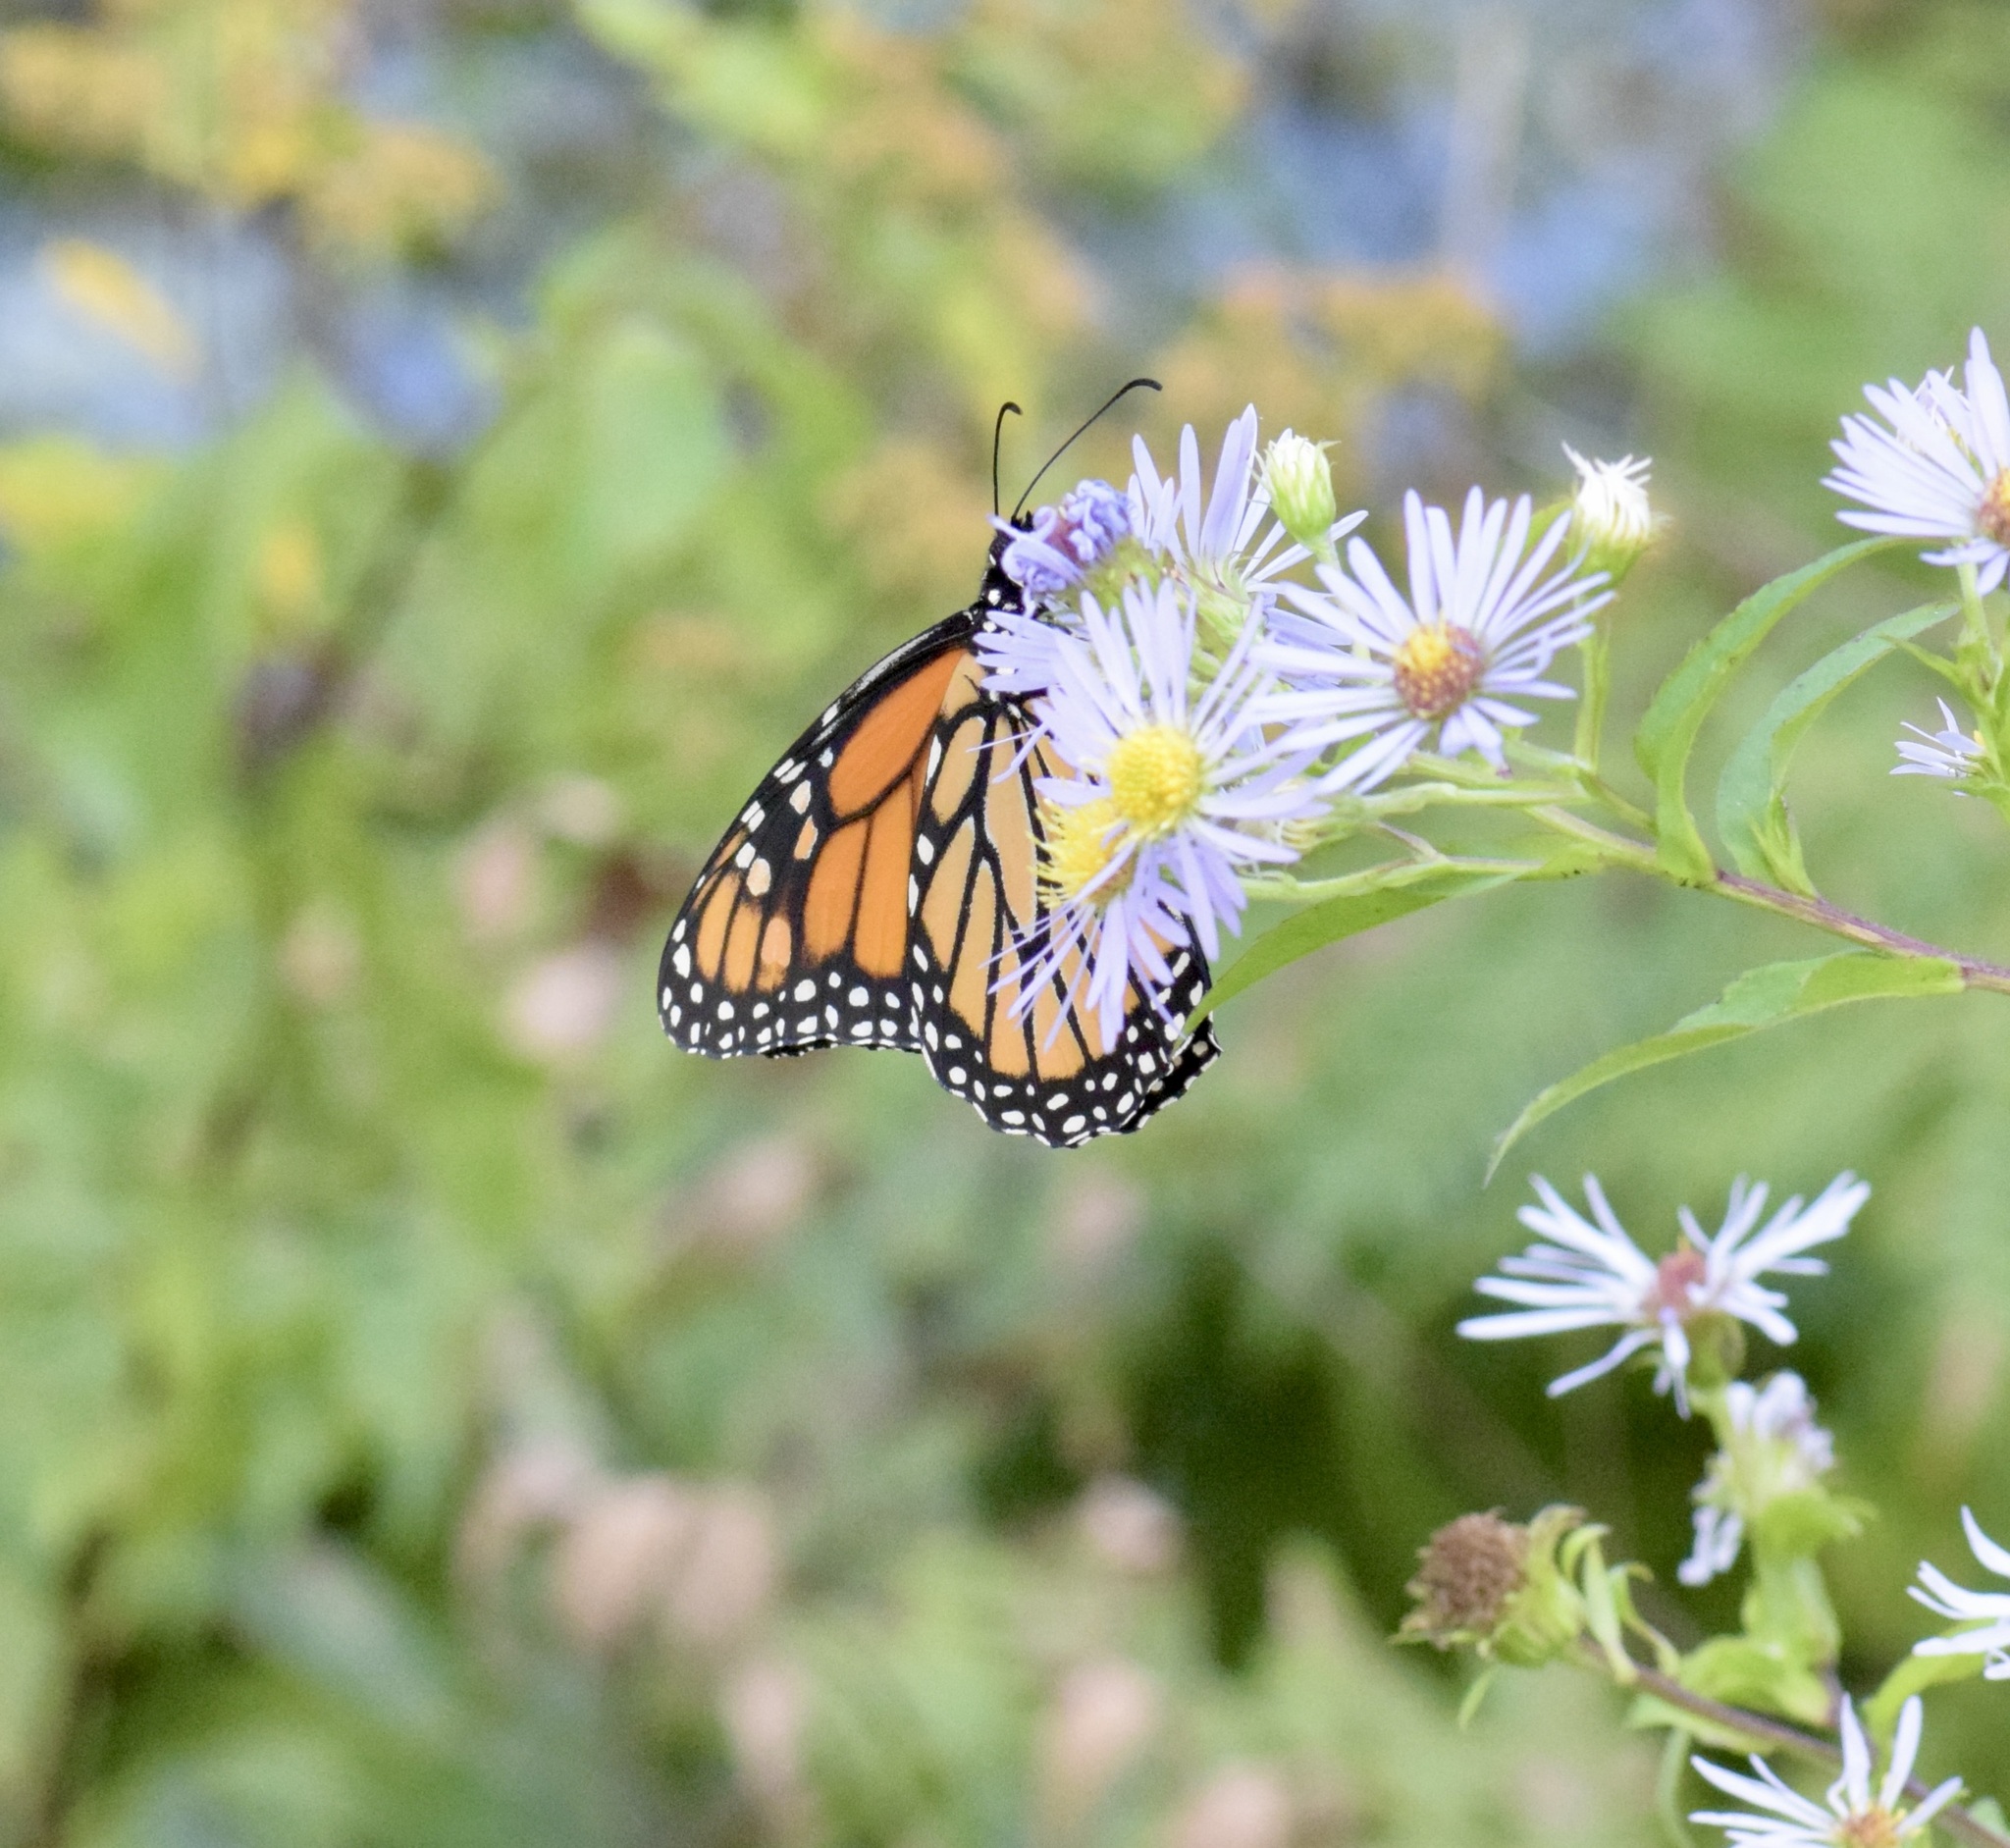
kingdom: Animalia
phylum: Arthropoda
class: Insecta
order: Lepidoptera
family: Nymphalidae
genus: Danaus
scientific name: Danaus plexippus
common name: Monarch
